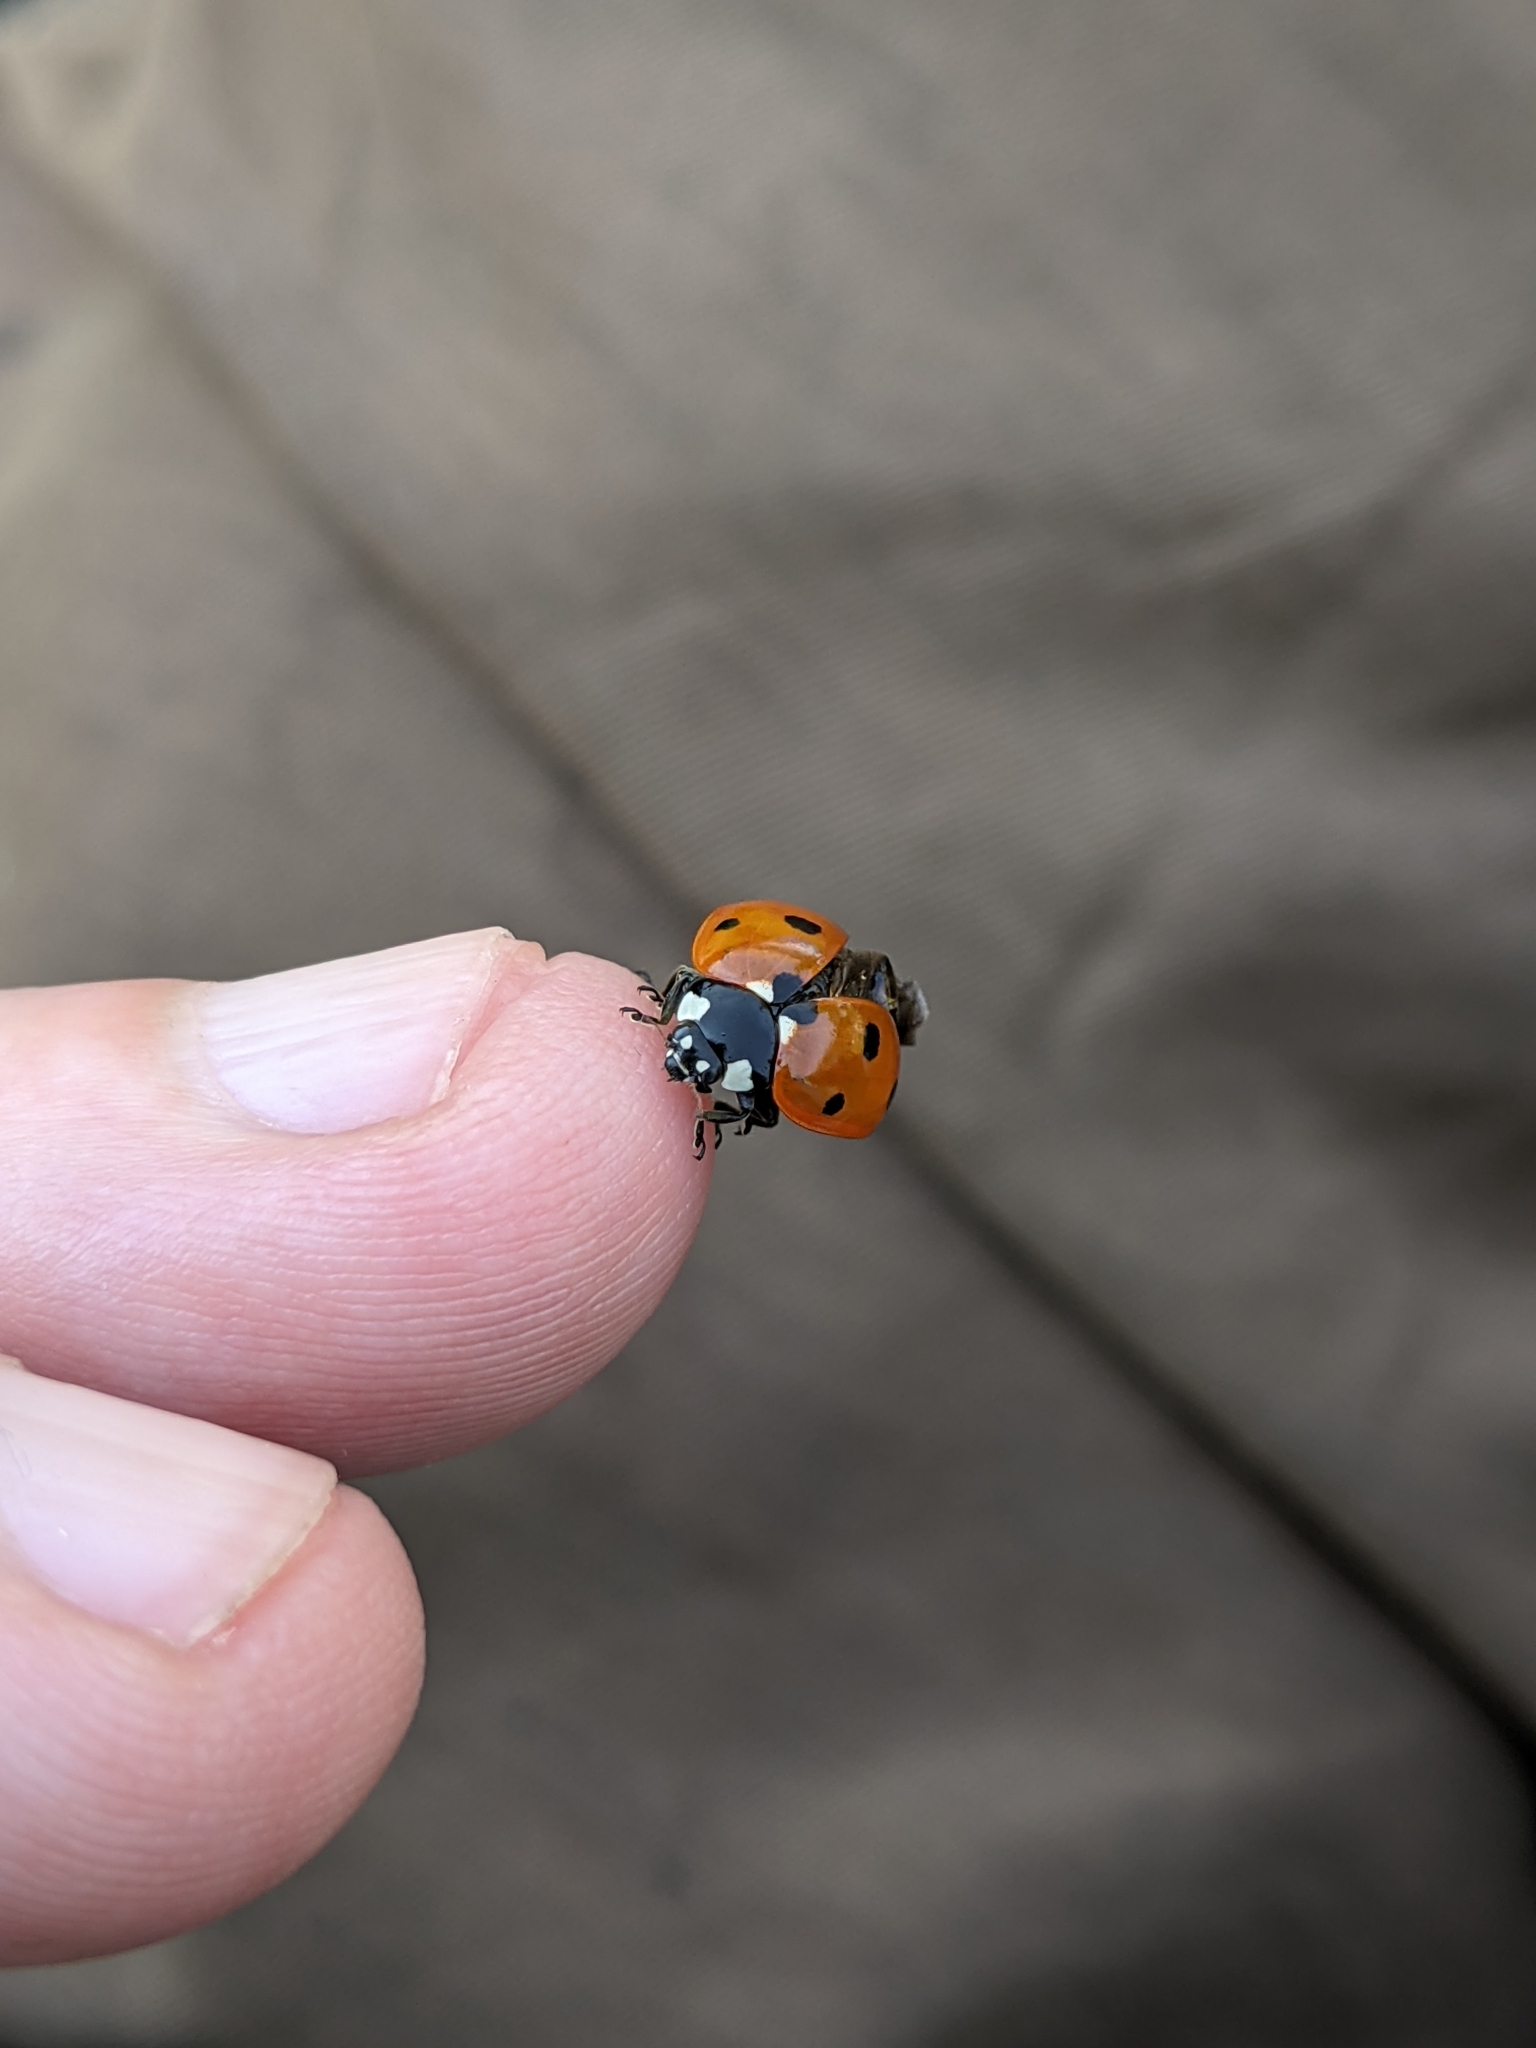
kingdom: Animalia
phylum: Arthropoda
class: Insecta
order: Coleoptera
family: Coccinellidae
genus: Coccinella
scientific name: Coccinella septempunctata
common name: Sevenspotted lady beetle
